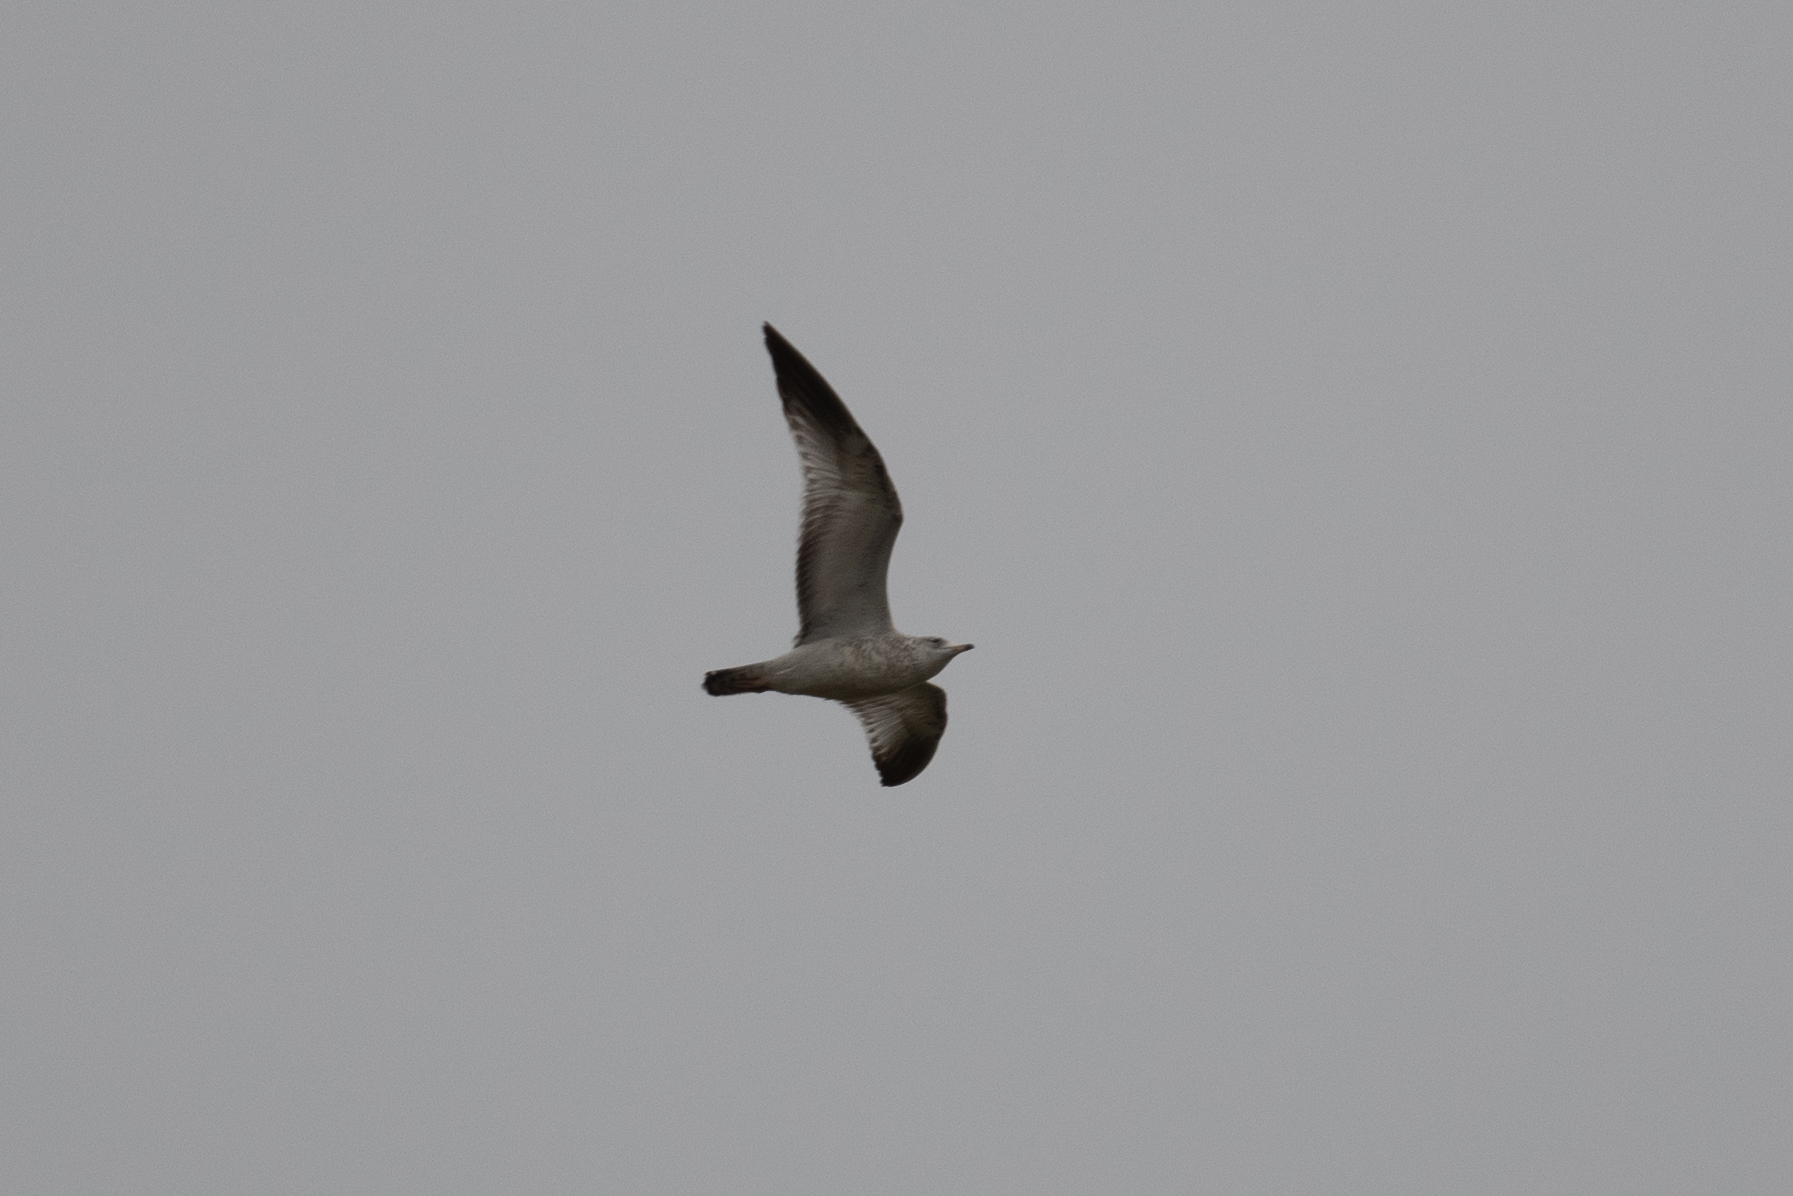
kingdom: Animalia
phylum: Chordata
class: Aves
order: Charadriiformes
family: Laridae
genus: Larus
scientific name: Larus delawarensis
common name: Ring-billed gull
